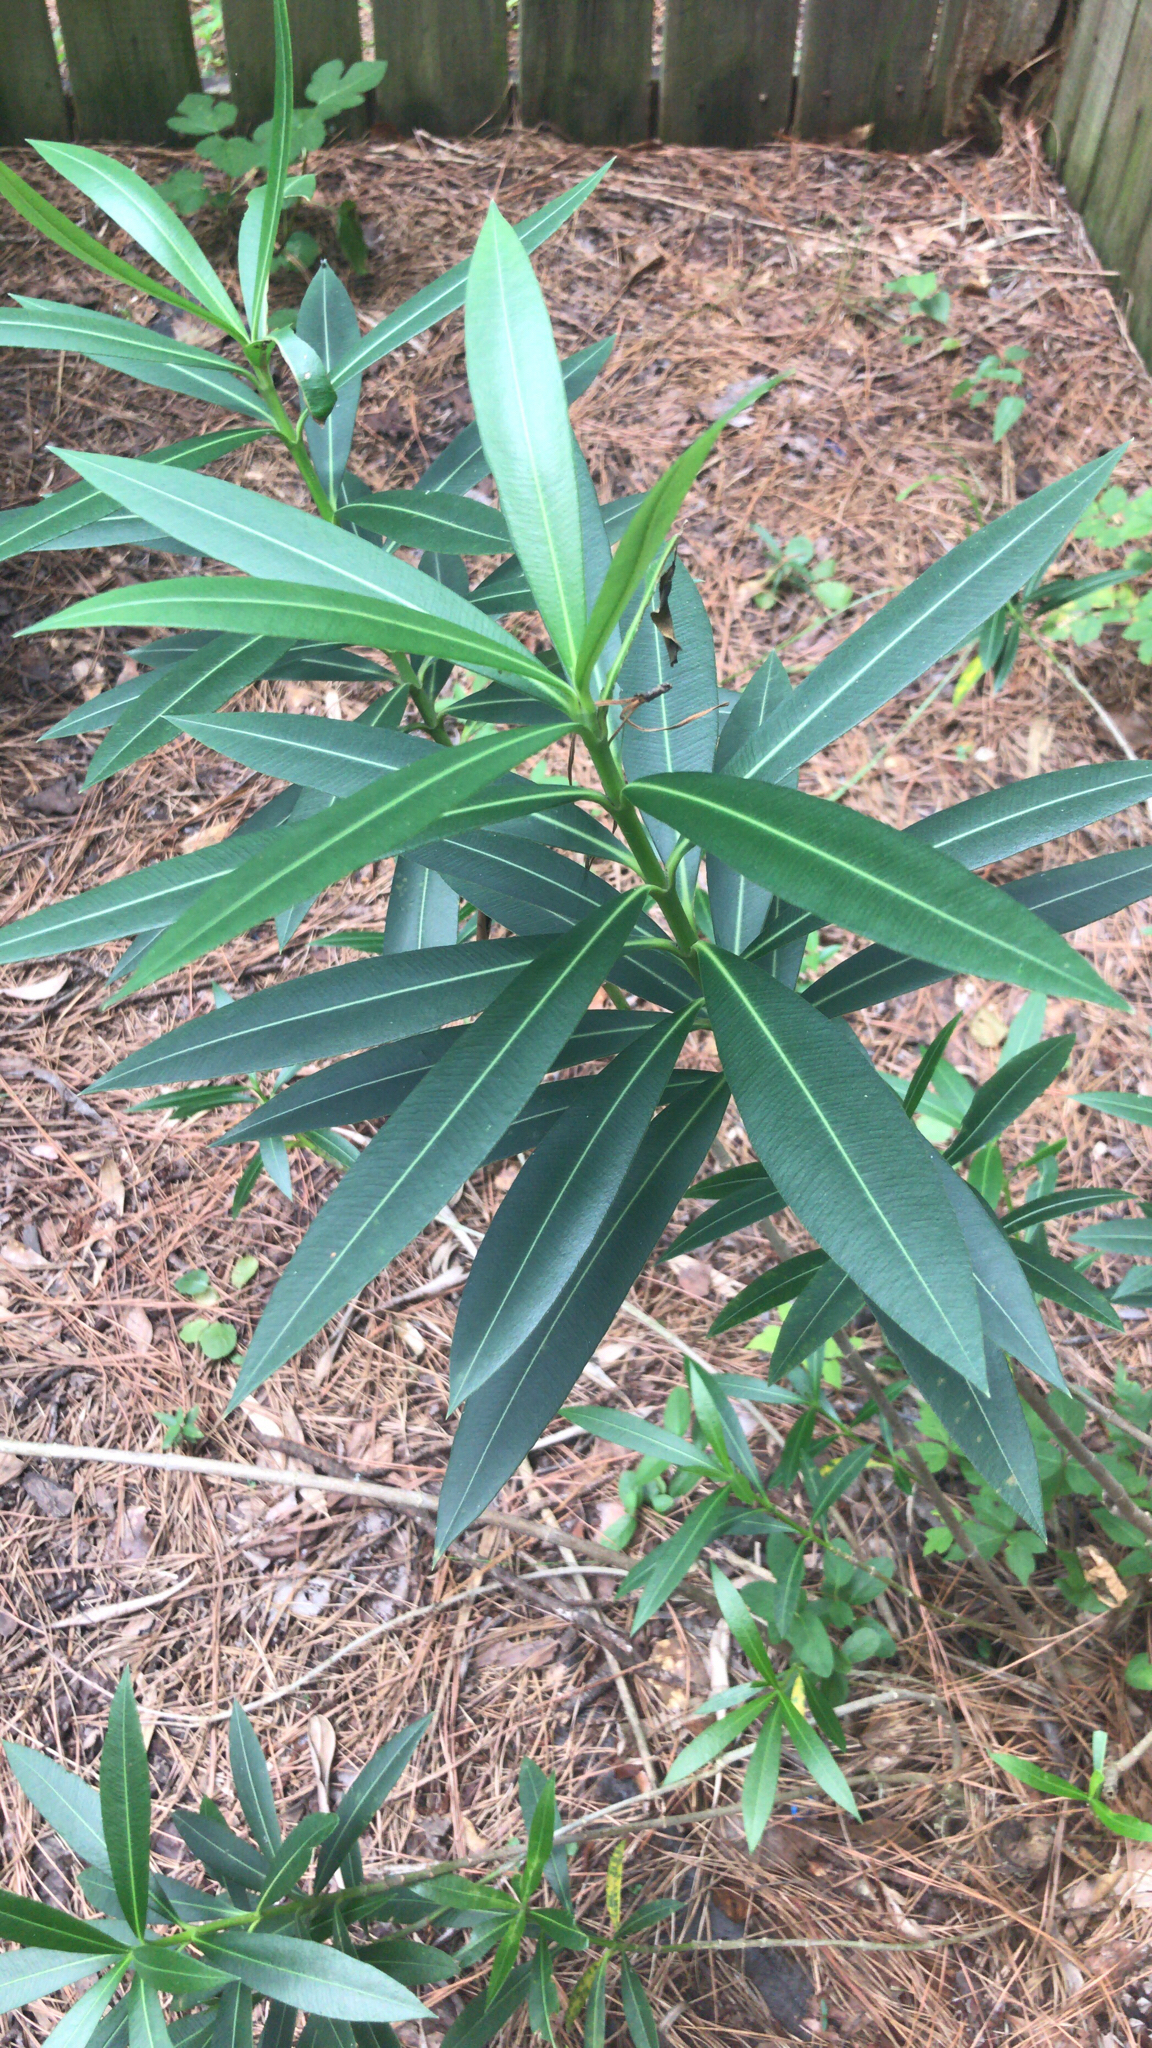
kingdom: Plantae
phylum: Tracheophyta
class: Magnoliopsida
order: Gentianales
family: Apocynaceae
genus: Nerium
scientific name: Nerium oleander
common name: Oleander
